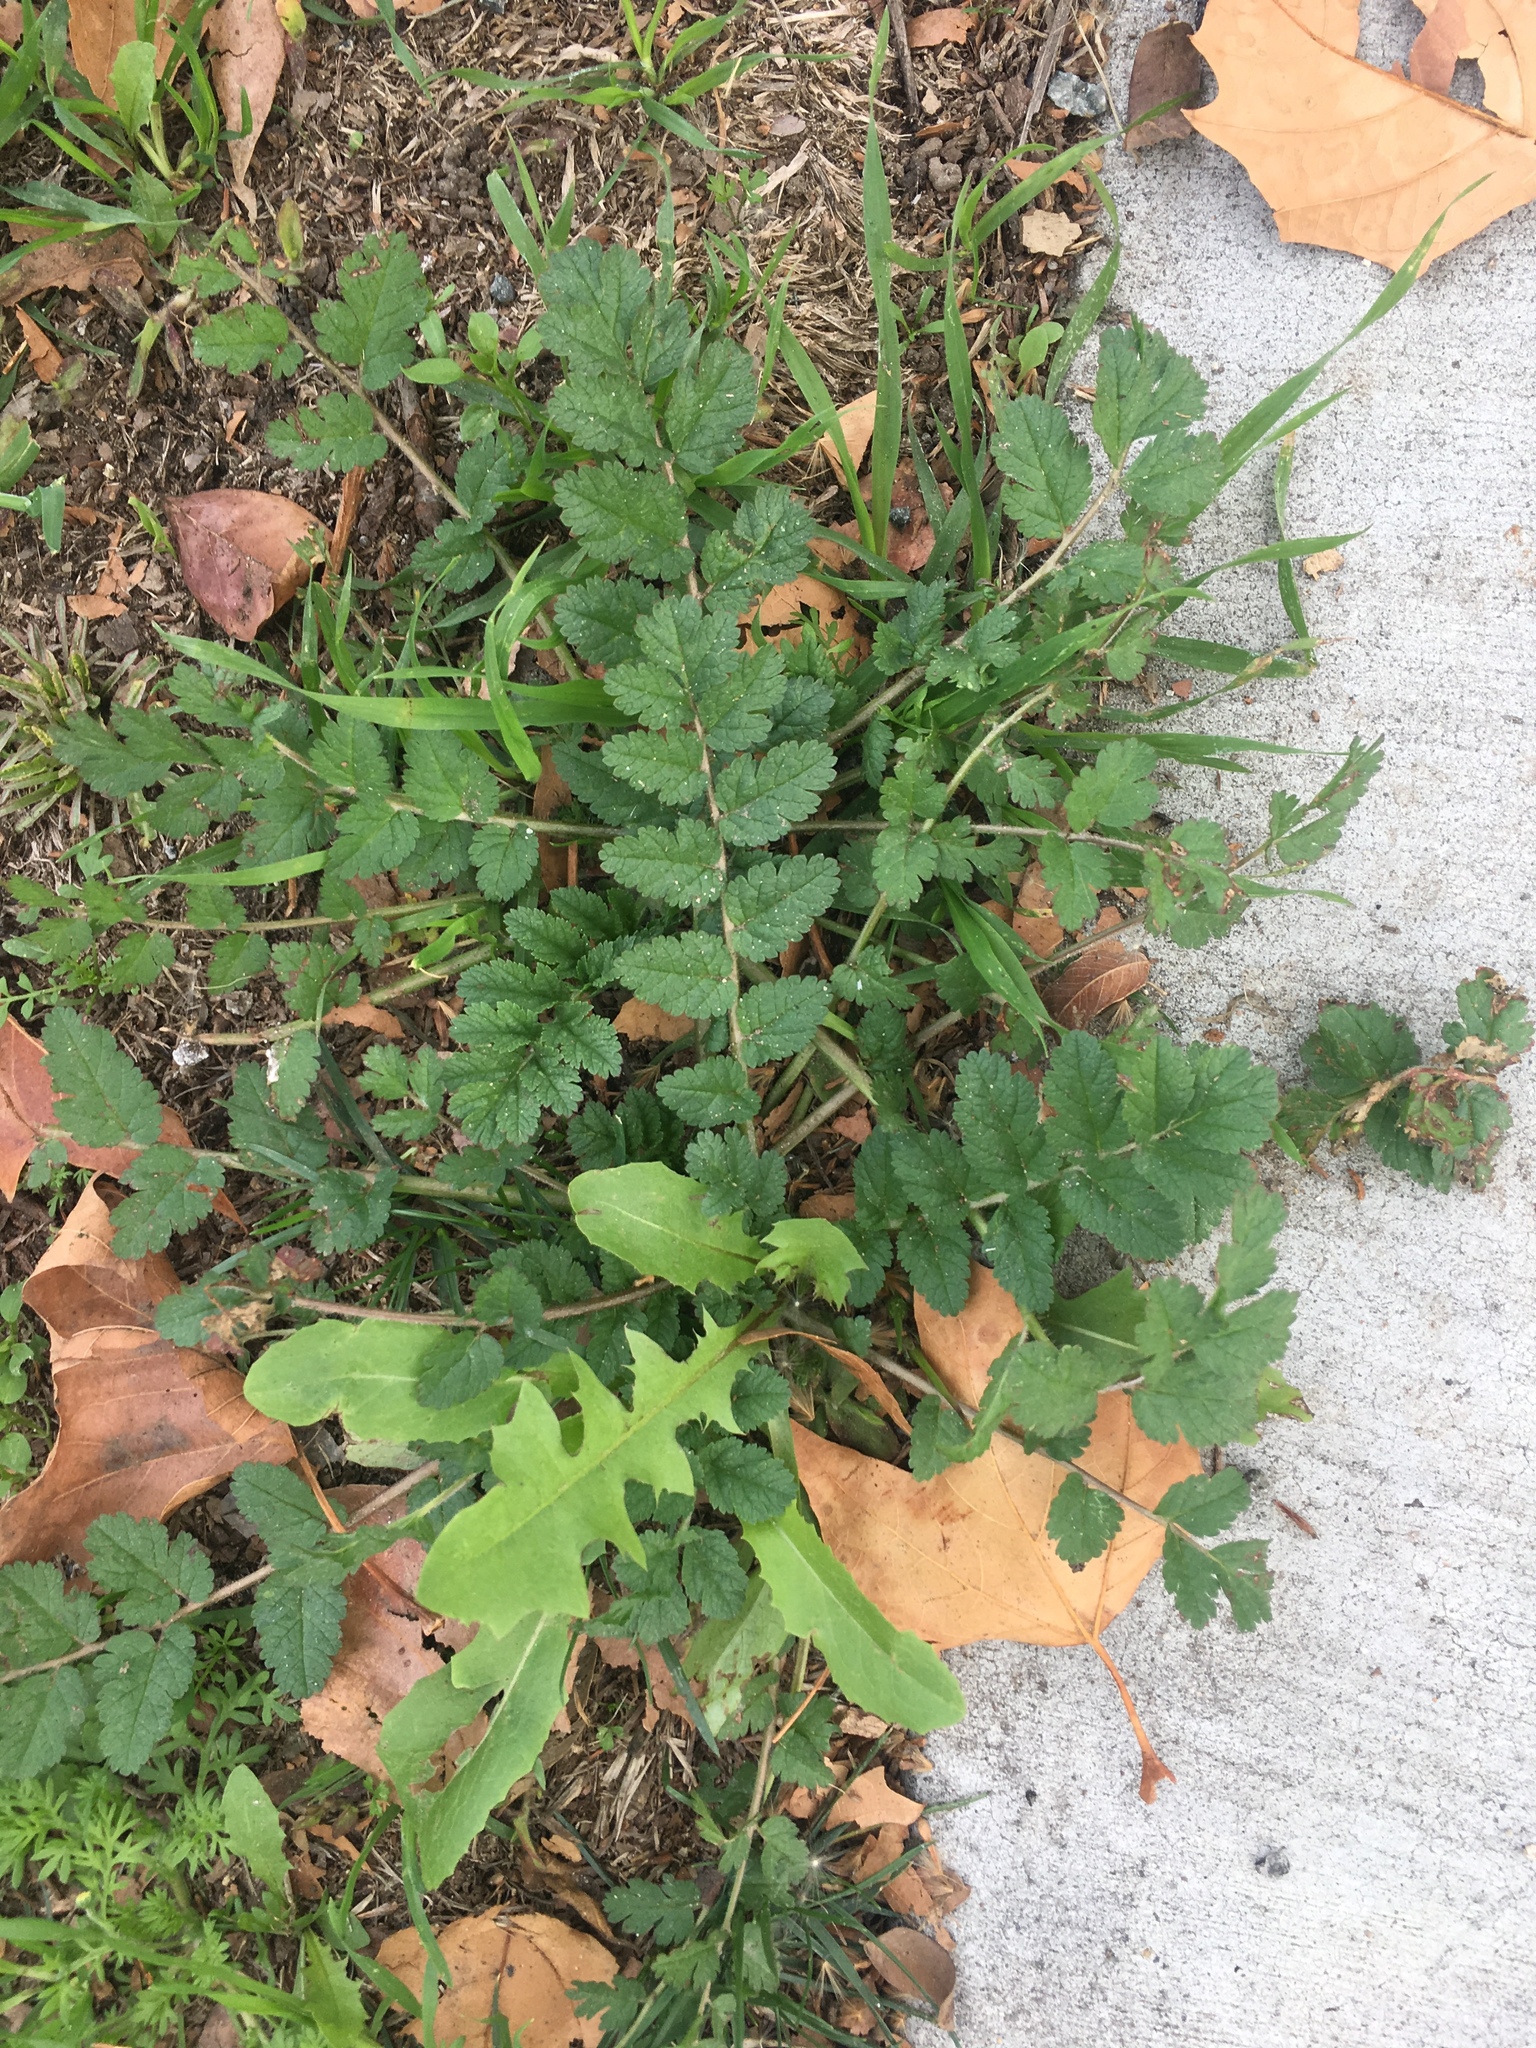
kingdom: Plantae
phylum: Tracheophyta
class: Magnoliopsida
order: Geraniales
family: Geraniaceae
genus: Erodium
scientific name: Erodium moschatum
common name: Musk stork's-bill
